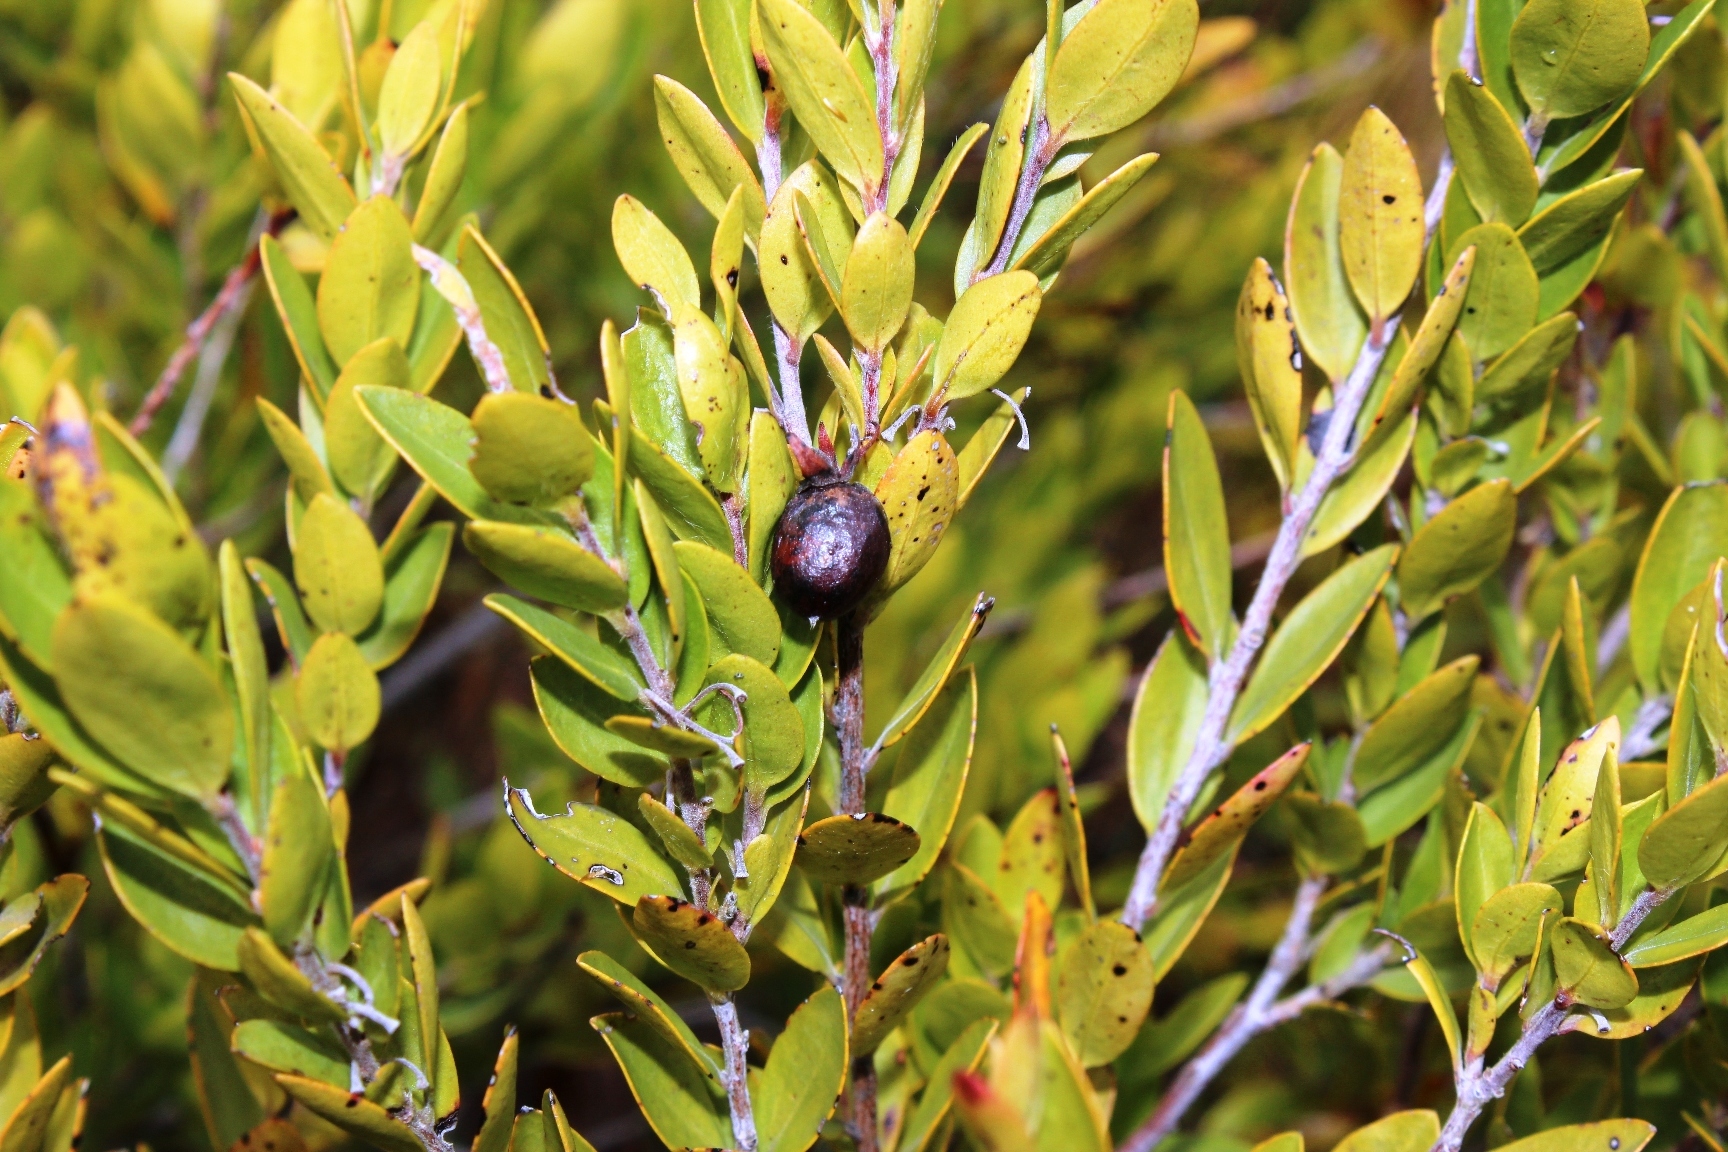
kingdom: Plantae
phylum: Tracheophyta
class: Magnoliopsida
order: Ericales
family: Ebenaceae
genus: Diospyros
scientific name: Diospyros glabra
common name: Fynbos star apple
